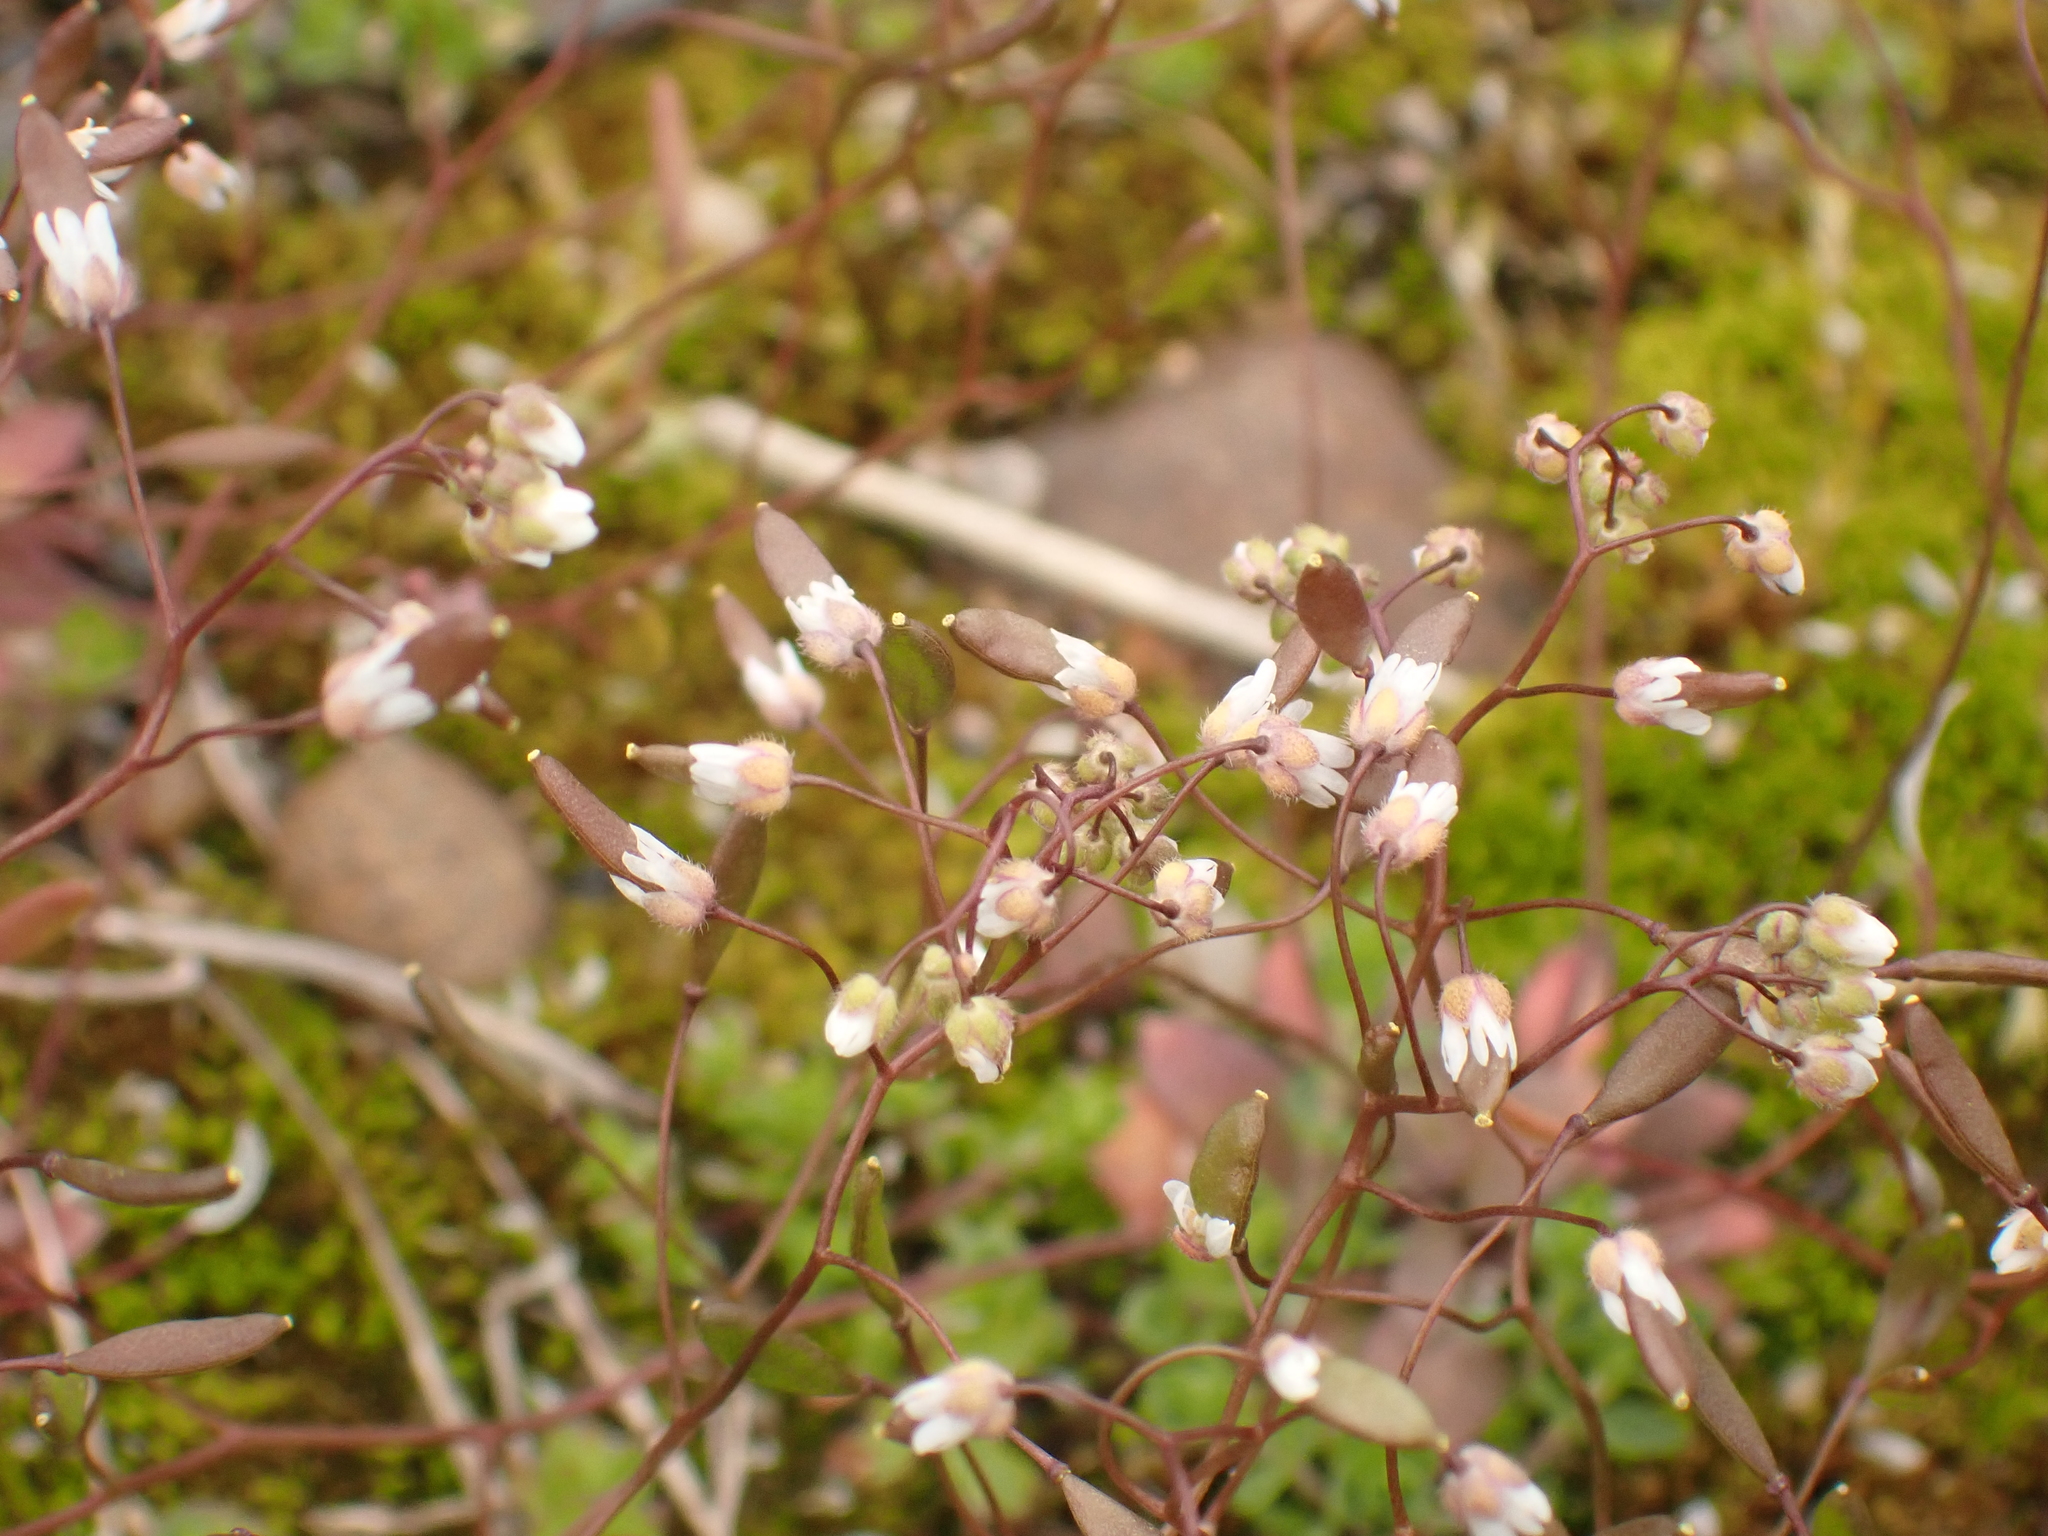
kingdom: Plantae
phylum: Tracheophyta
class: Magnoliopsida
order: Brassicales
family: Brassicaceae
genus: Draba
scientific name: Draba verna
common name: Spring draba
